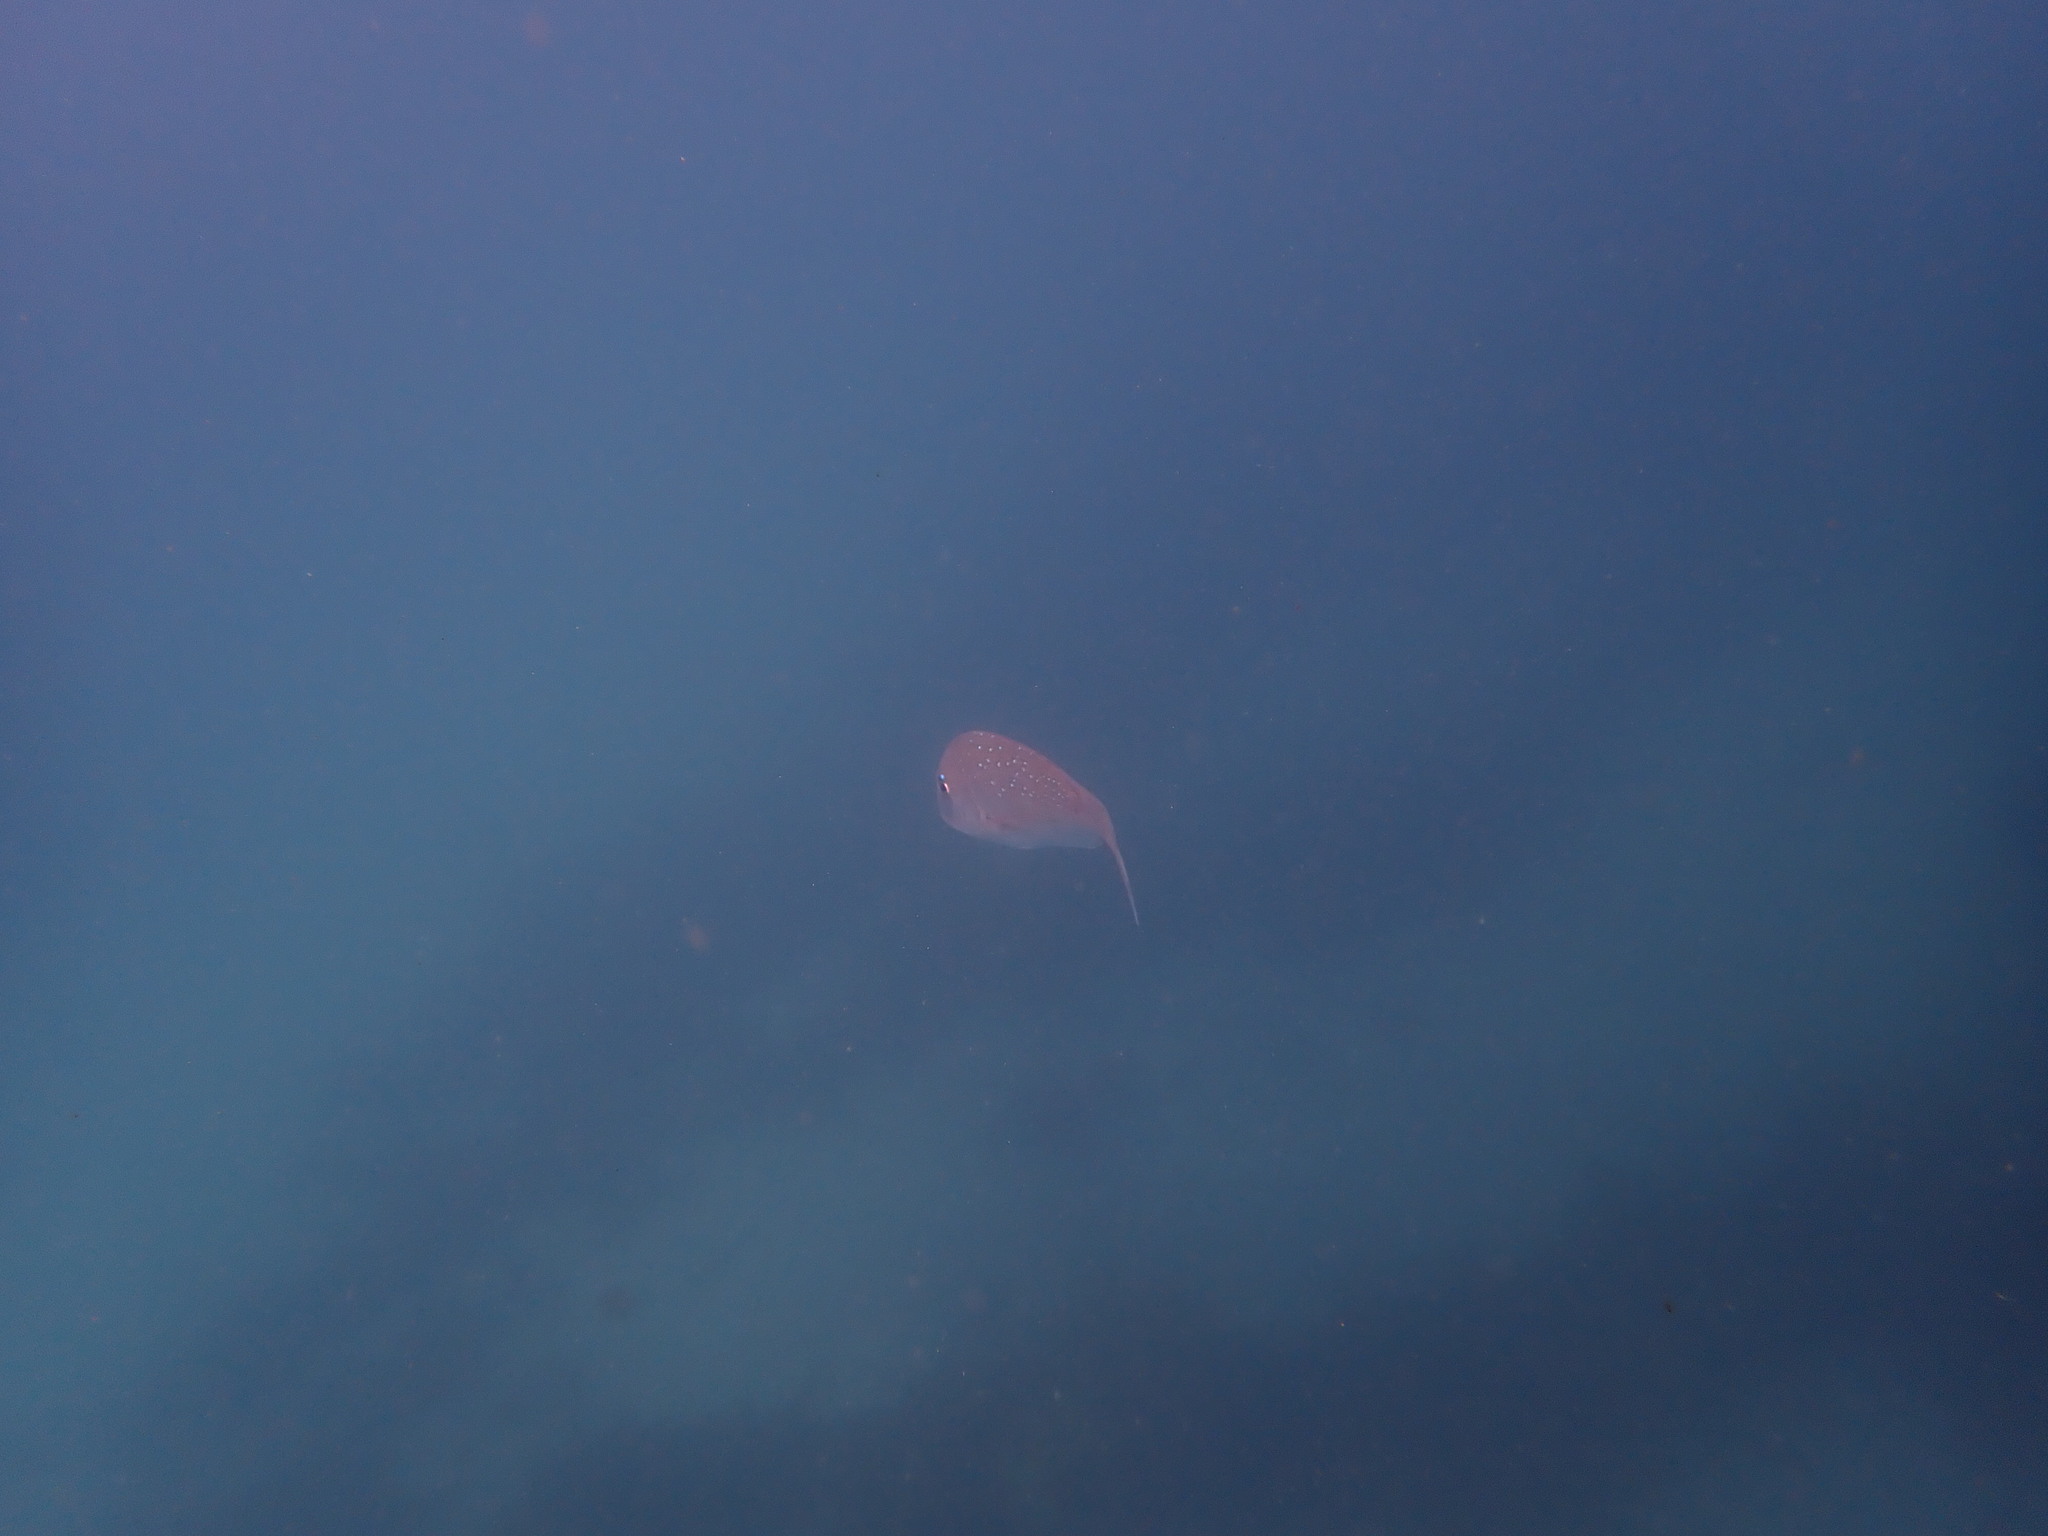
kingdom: Animalia
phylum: Chordata
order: Perciformes
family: Sparidae
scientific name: Sparidae
